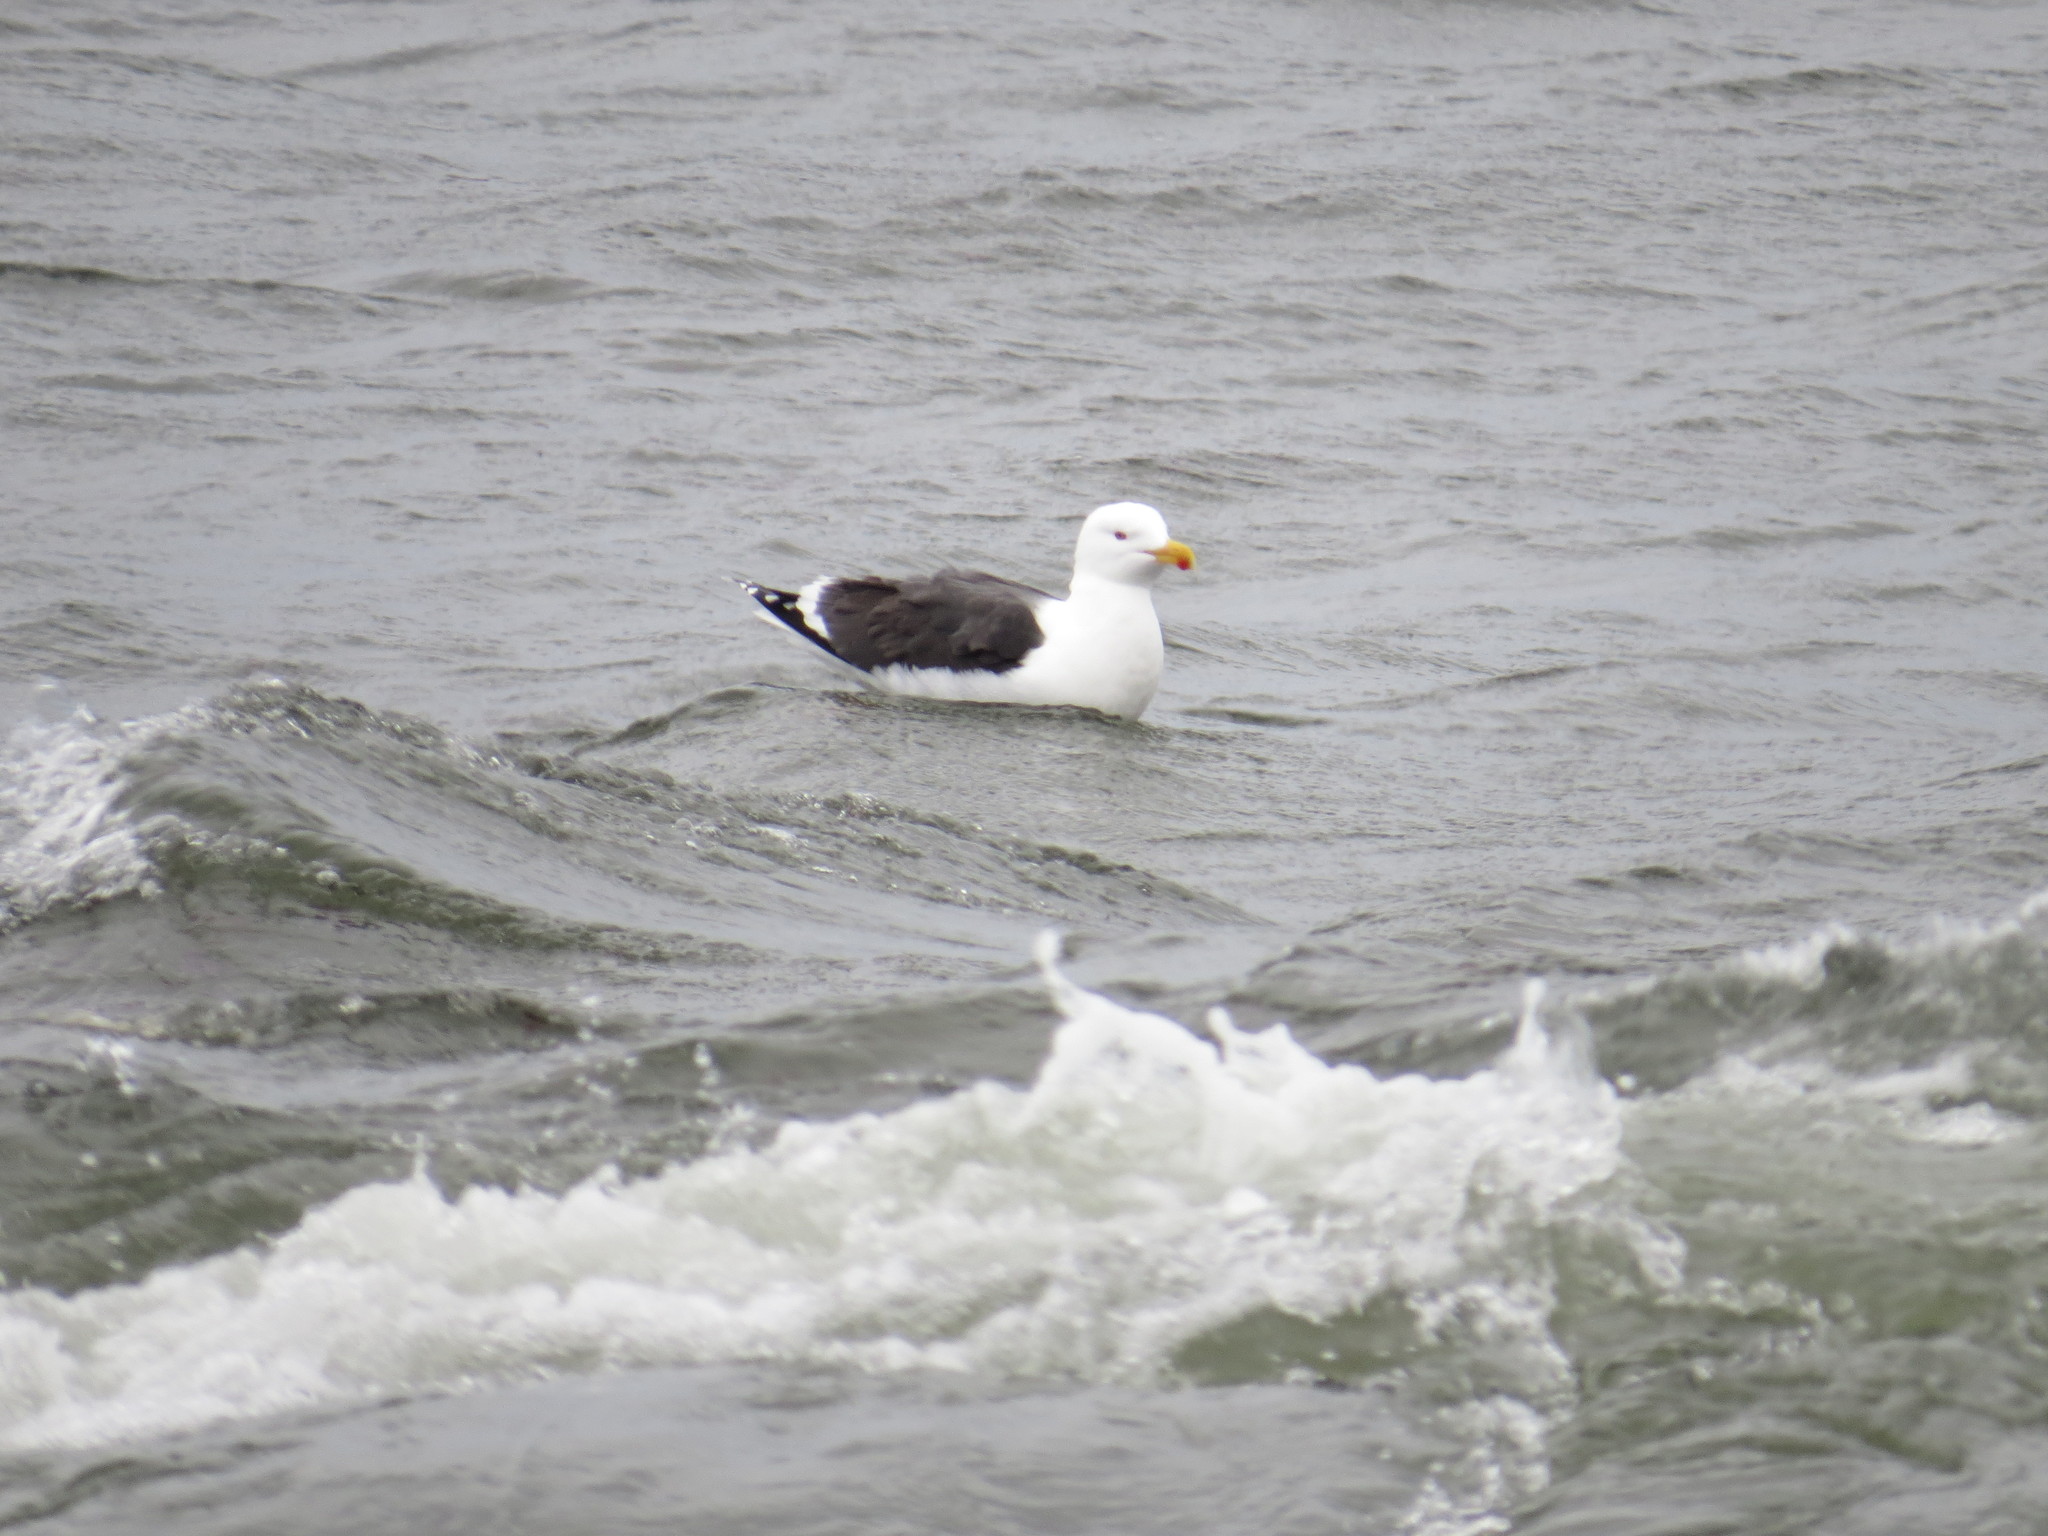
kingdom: Animalia
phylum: Chordata
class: Aves
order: Charadriiformes
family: Laridae
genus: Larus
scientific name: Larus marinus
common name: Great black-backed gull
